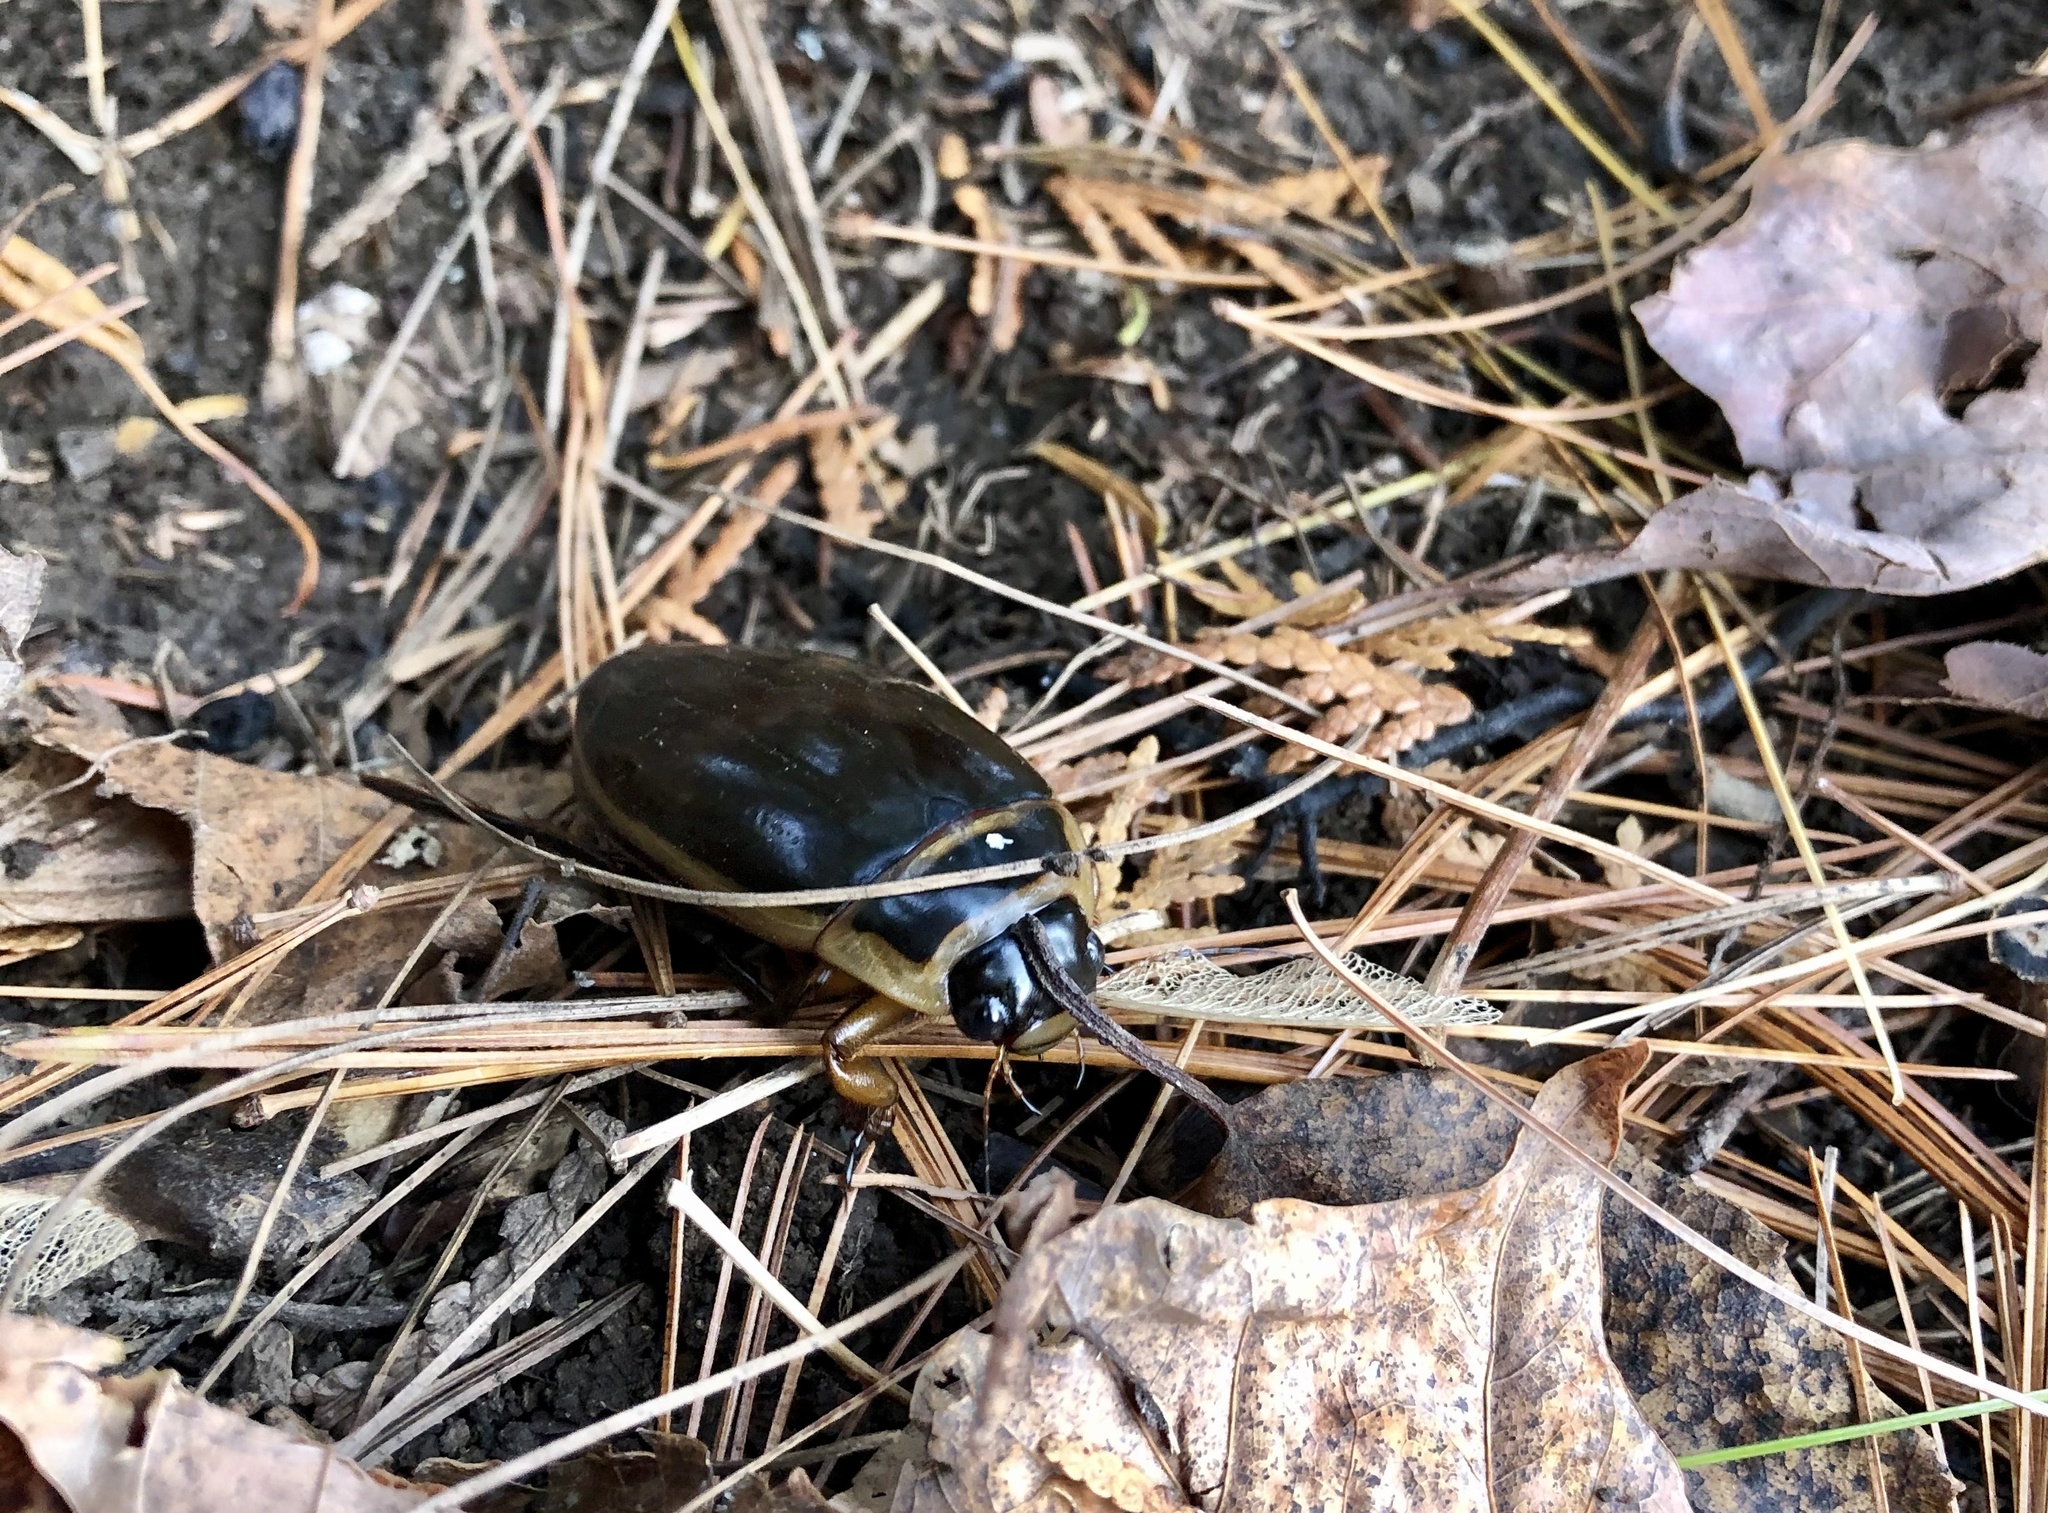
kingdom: Animalia
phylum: Arthropoda
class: Insecta
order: Coleoptera
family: Dytiscidae
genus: Dytiscus
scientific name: Dytiscus
